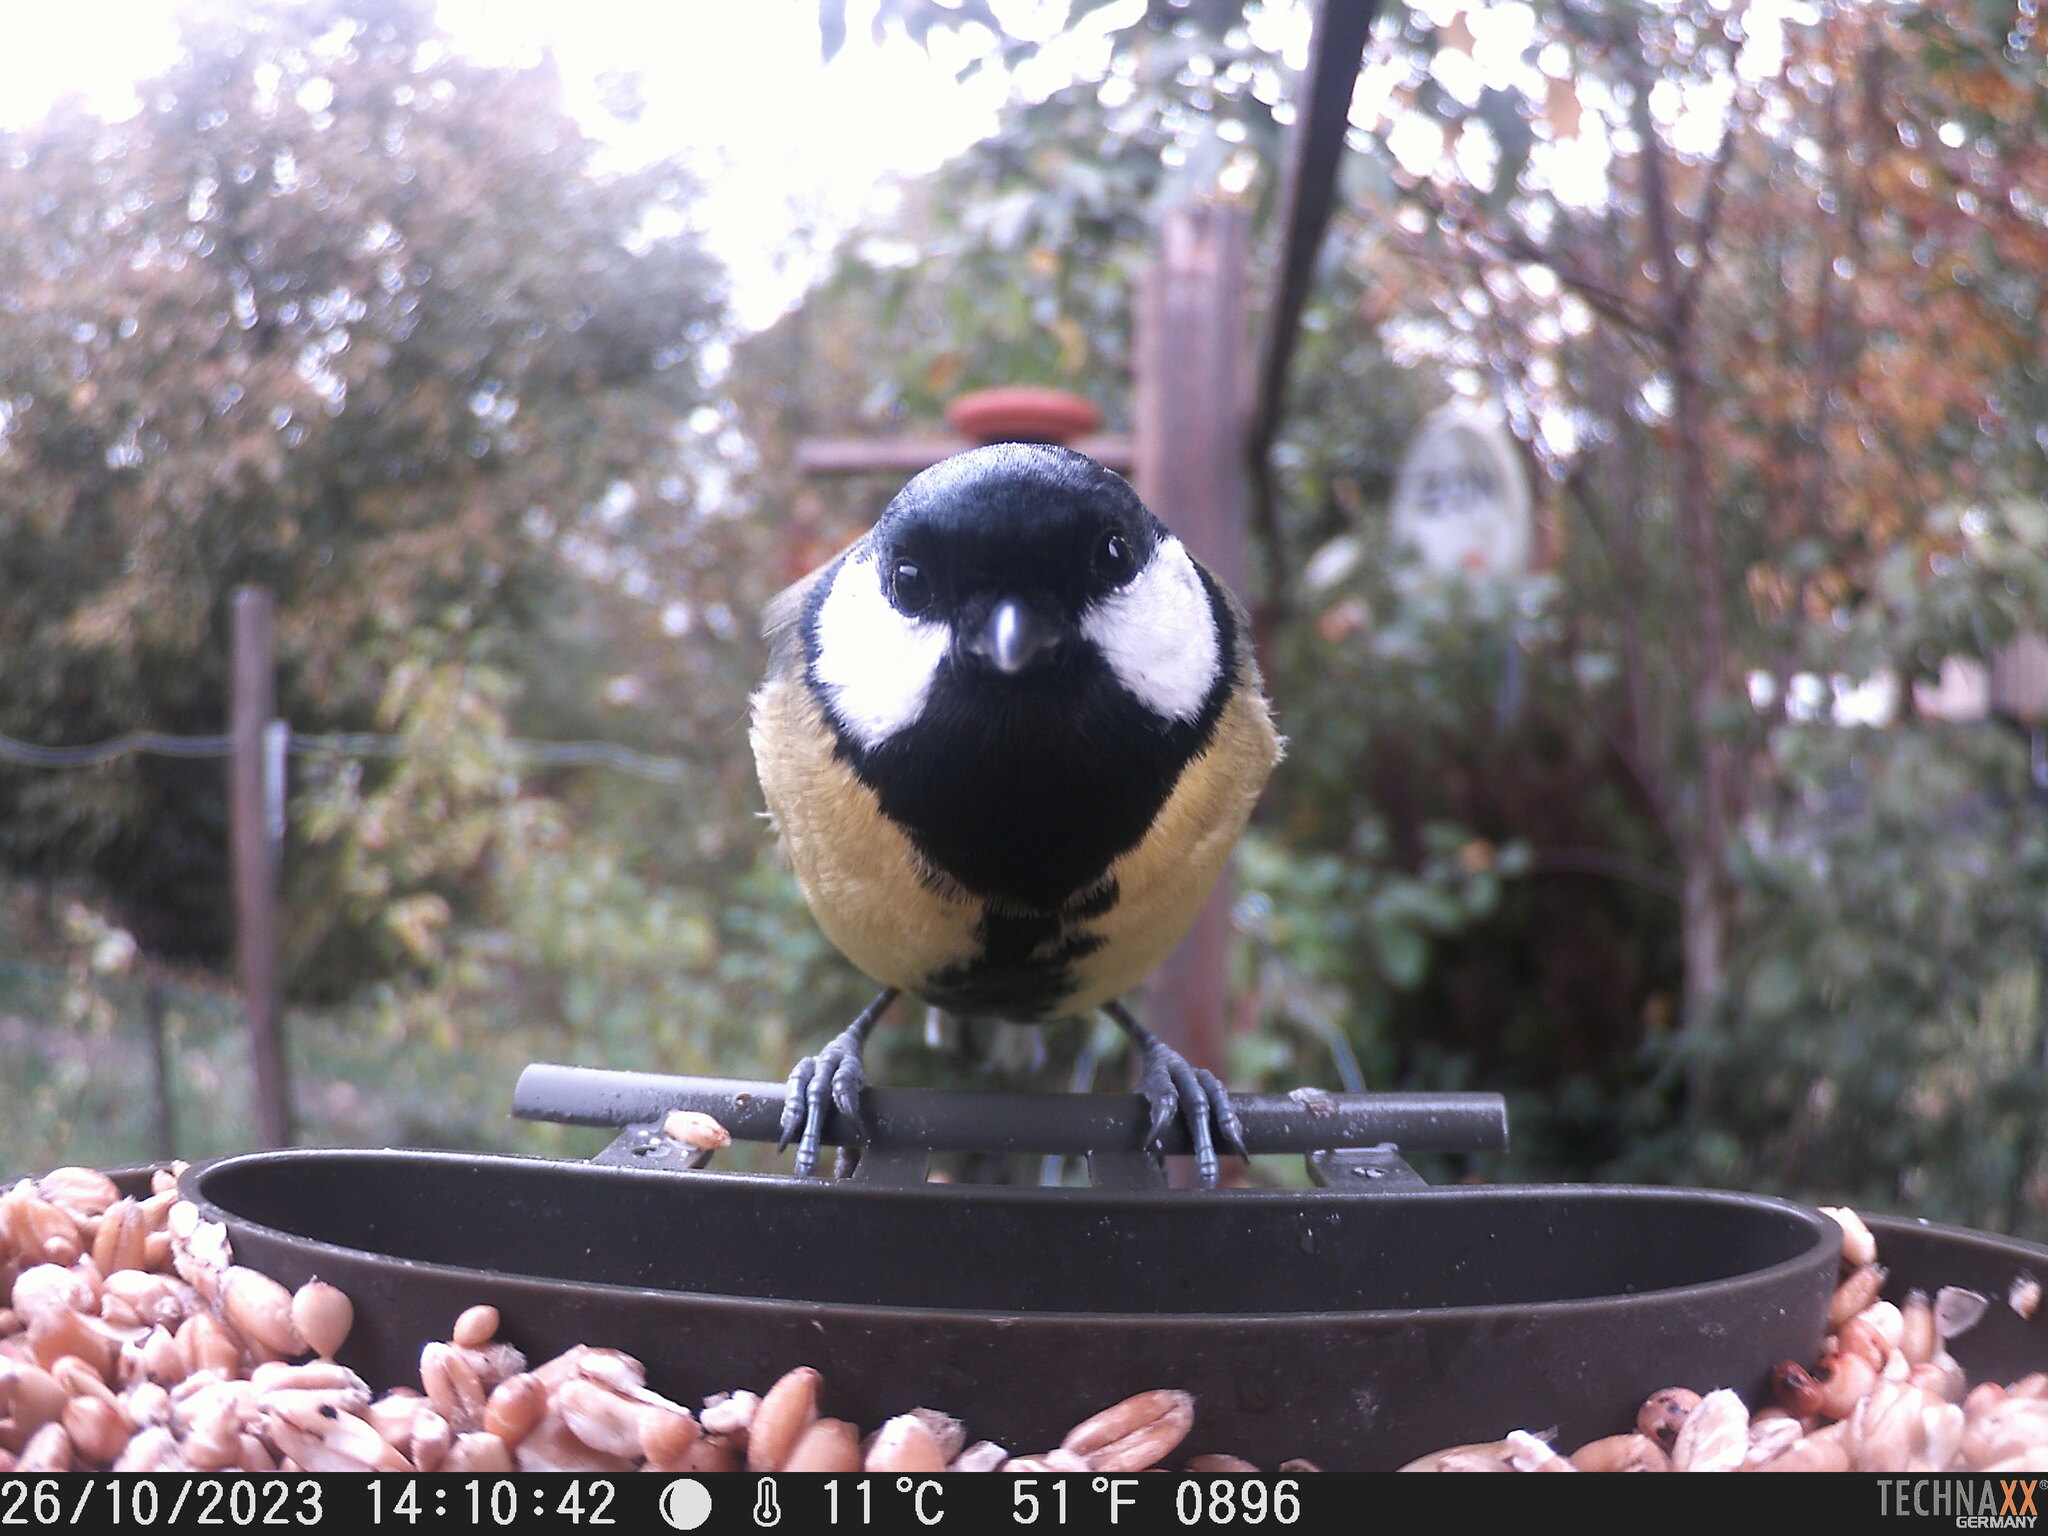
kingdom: Animalia
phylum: Chordata
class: Aves
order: Passeriformes
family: Paridae
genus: Parus
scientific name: Parus major
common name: Great tit
